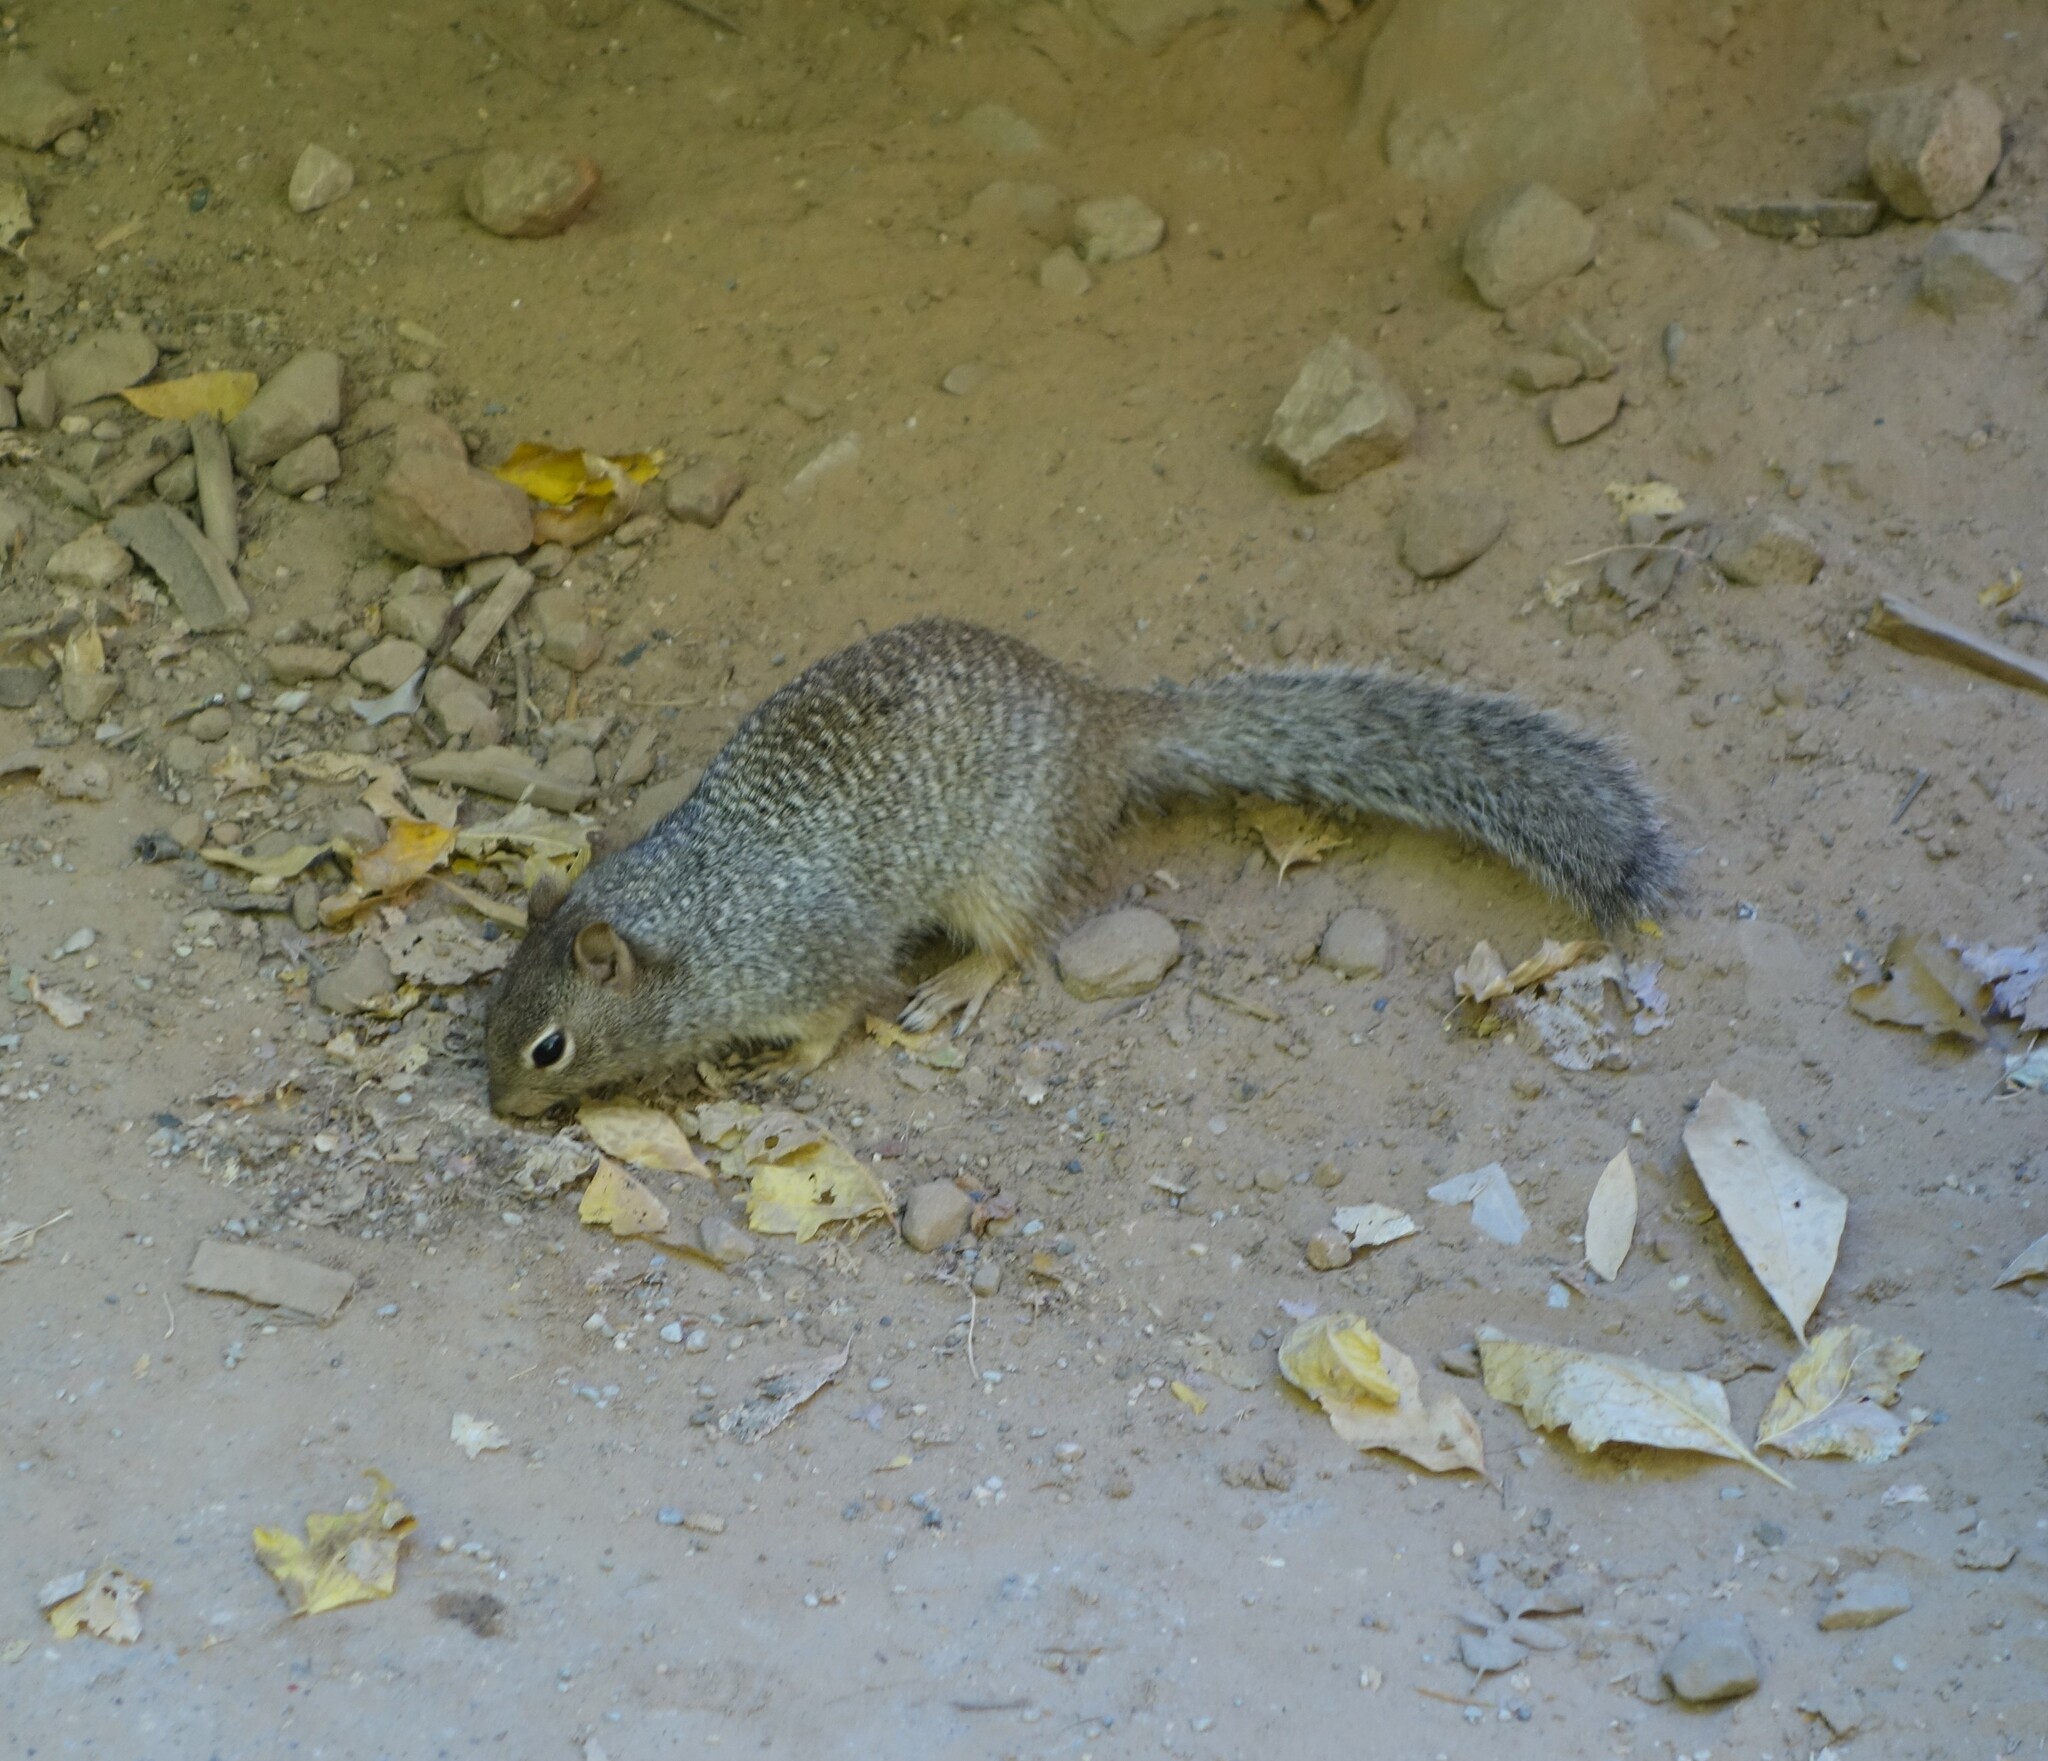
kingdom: Animalia
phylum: Chordata
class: Mammalia
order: Rodentia
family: Sciuridae
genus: Otospermophilus
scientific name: Otospermophilus variegatus
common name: Rock squirrel
